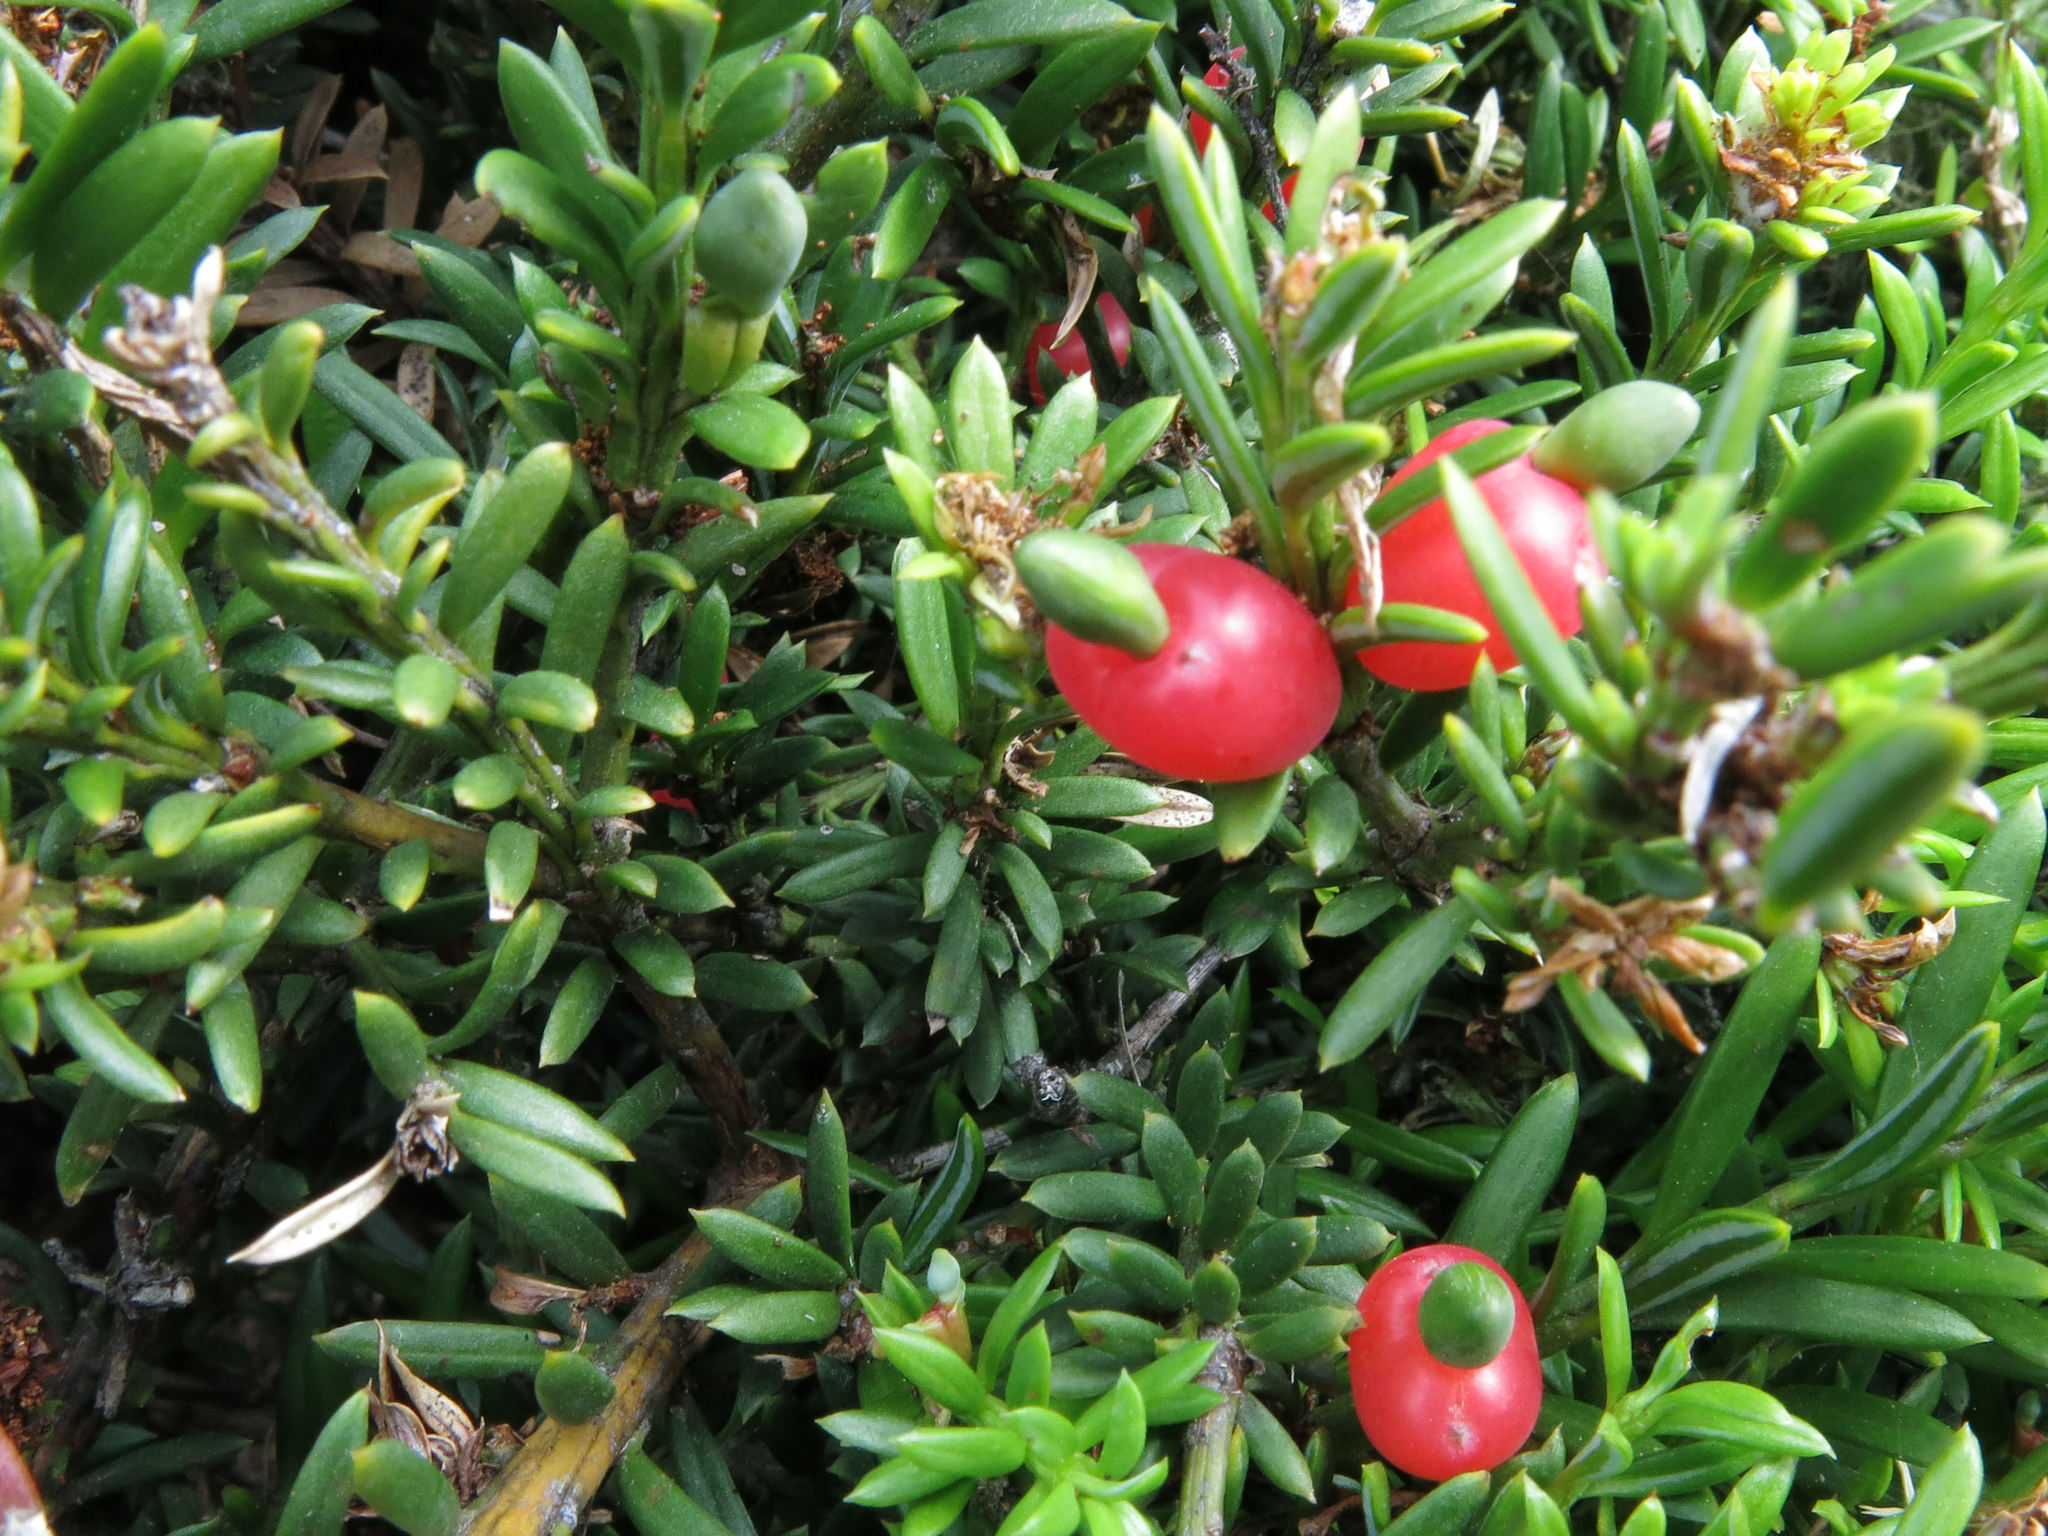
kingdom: Plantae
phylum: Tracheophyta
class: Pinopsida
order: Pinales
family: Podocarpaceae
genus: Podocarpus
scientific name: Podocarpus nivalis
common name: Alpine totara
